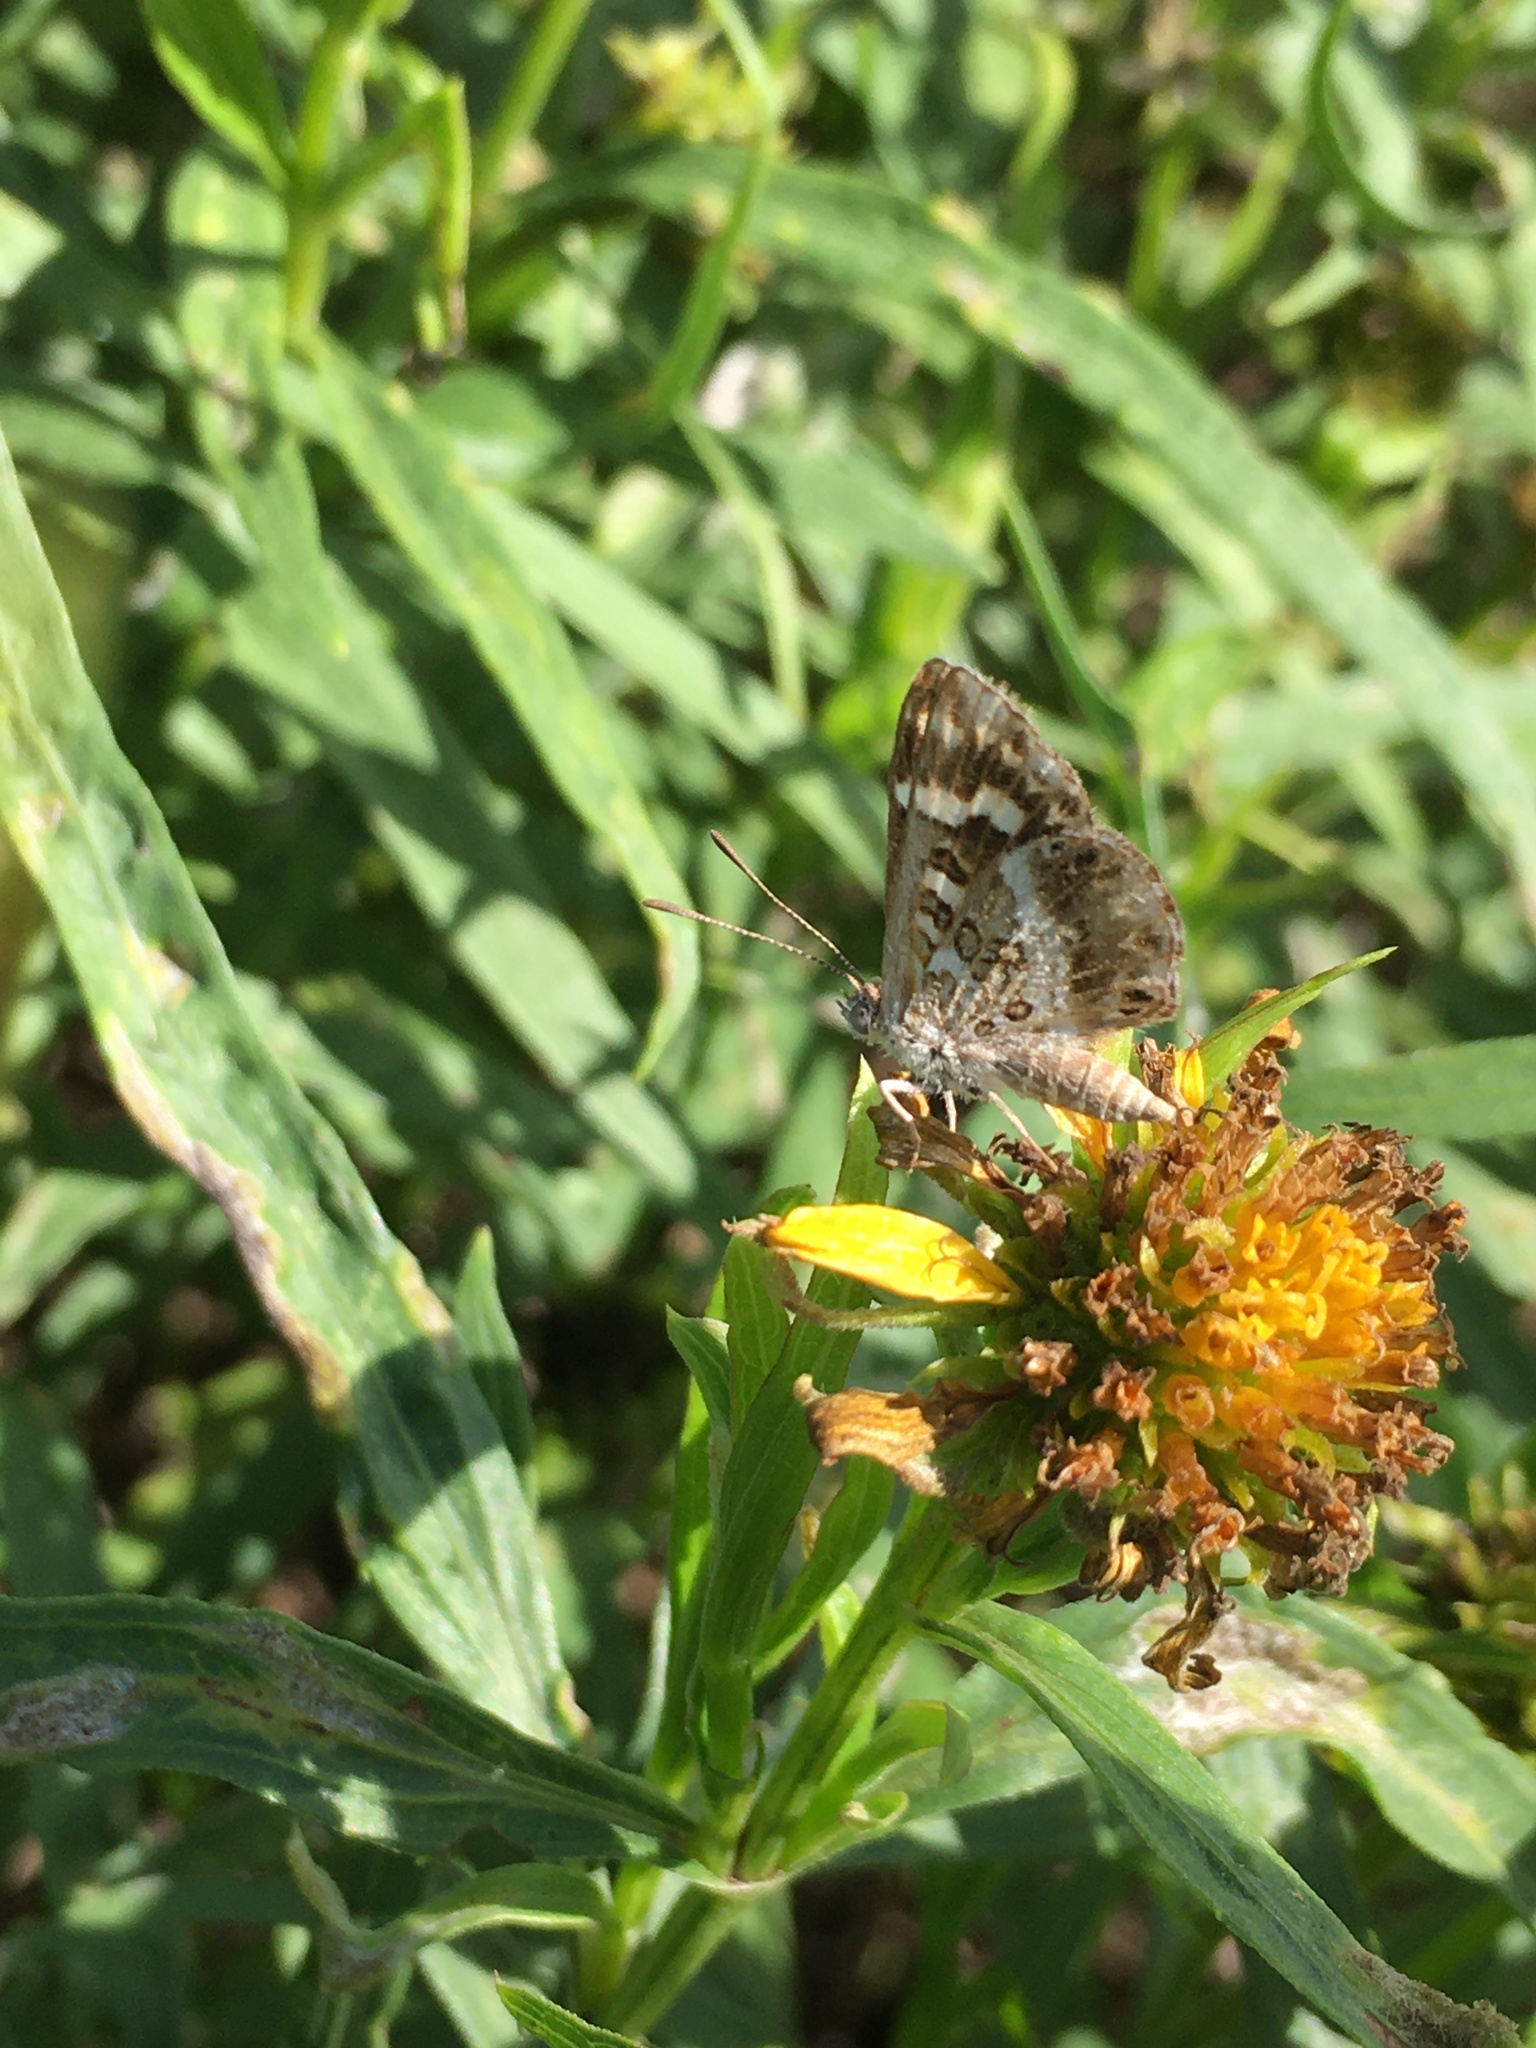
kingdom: Animalia
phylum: Arthropoda
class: Insecta
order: Lepidoptera
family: Lycaenidae
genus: Aricoris
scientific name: Aricoris signata
